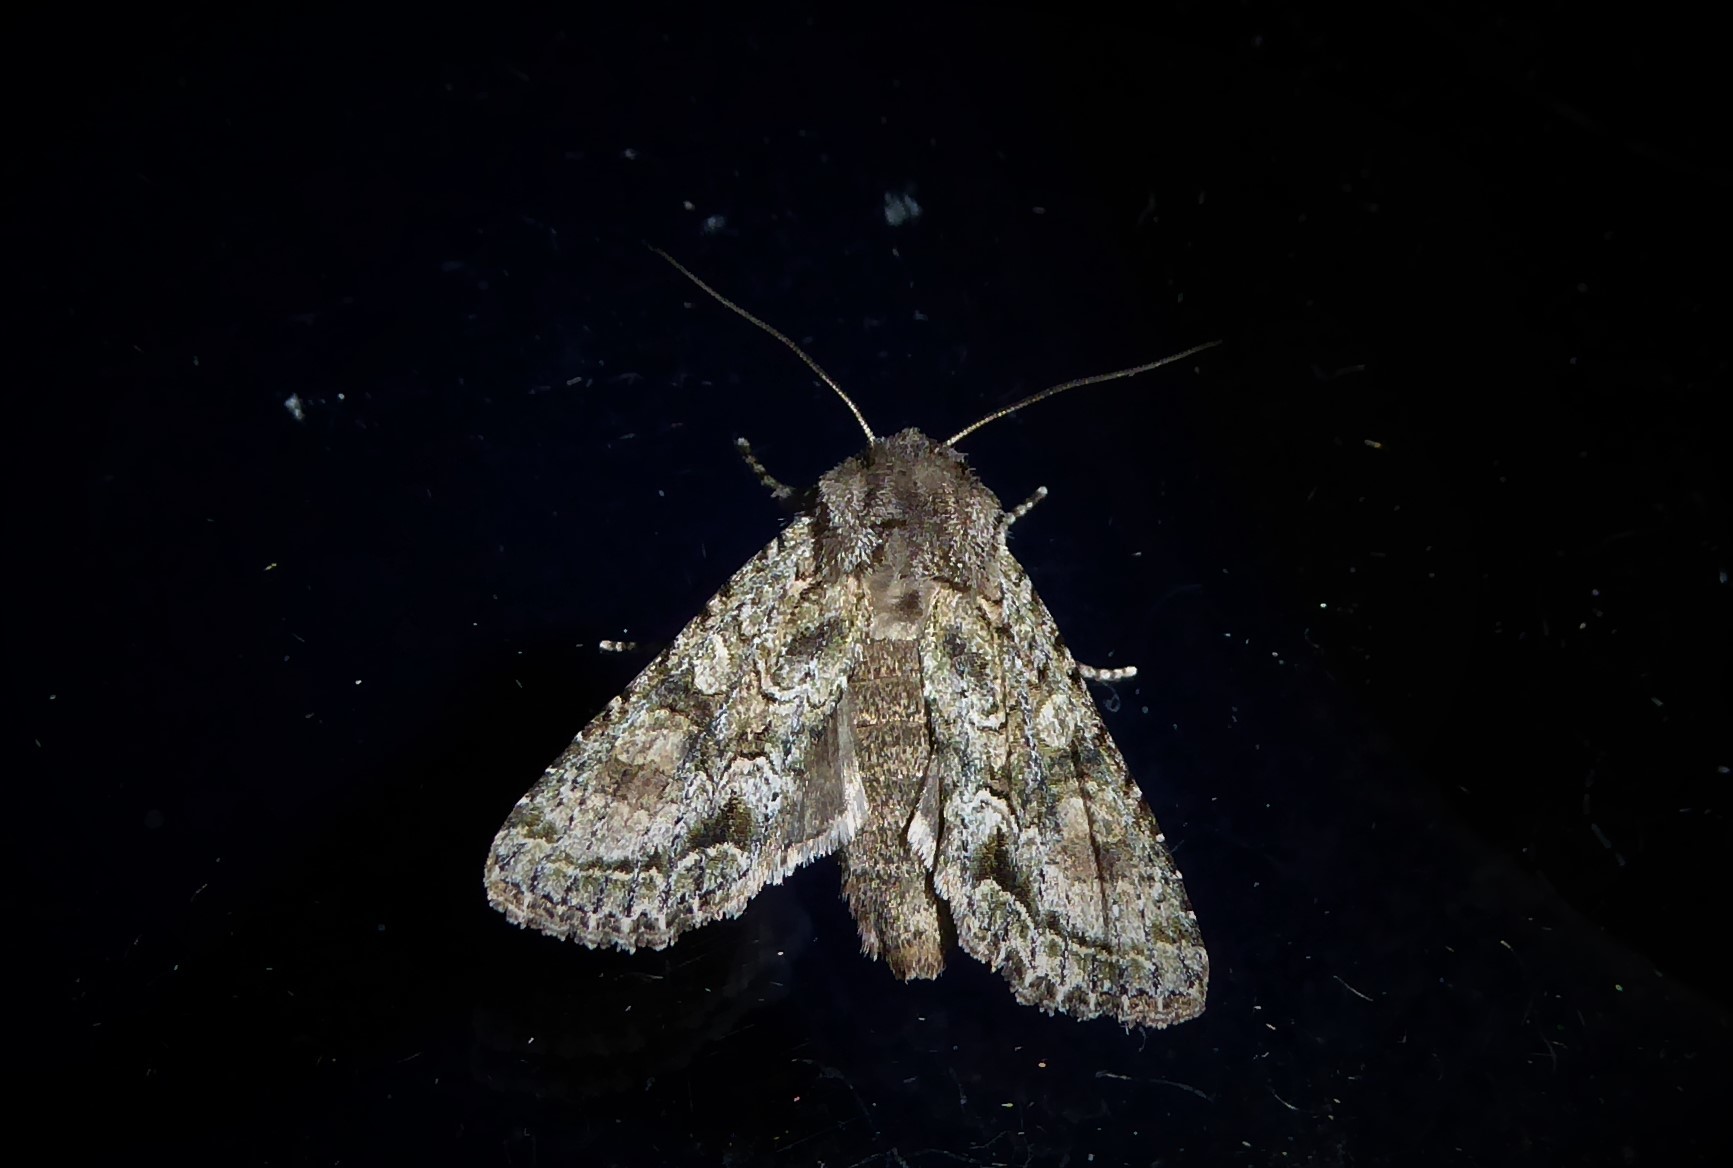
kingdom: Animalia
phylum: Arthropoda
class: Insecta
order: Lepidoptera
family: Noctuidae
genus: Ichneutica
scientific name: Ichneutica mutans
